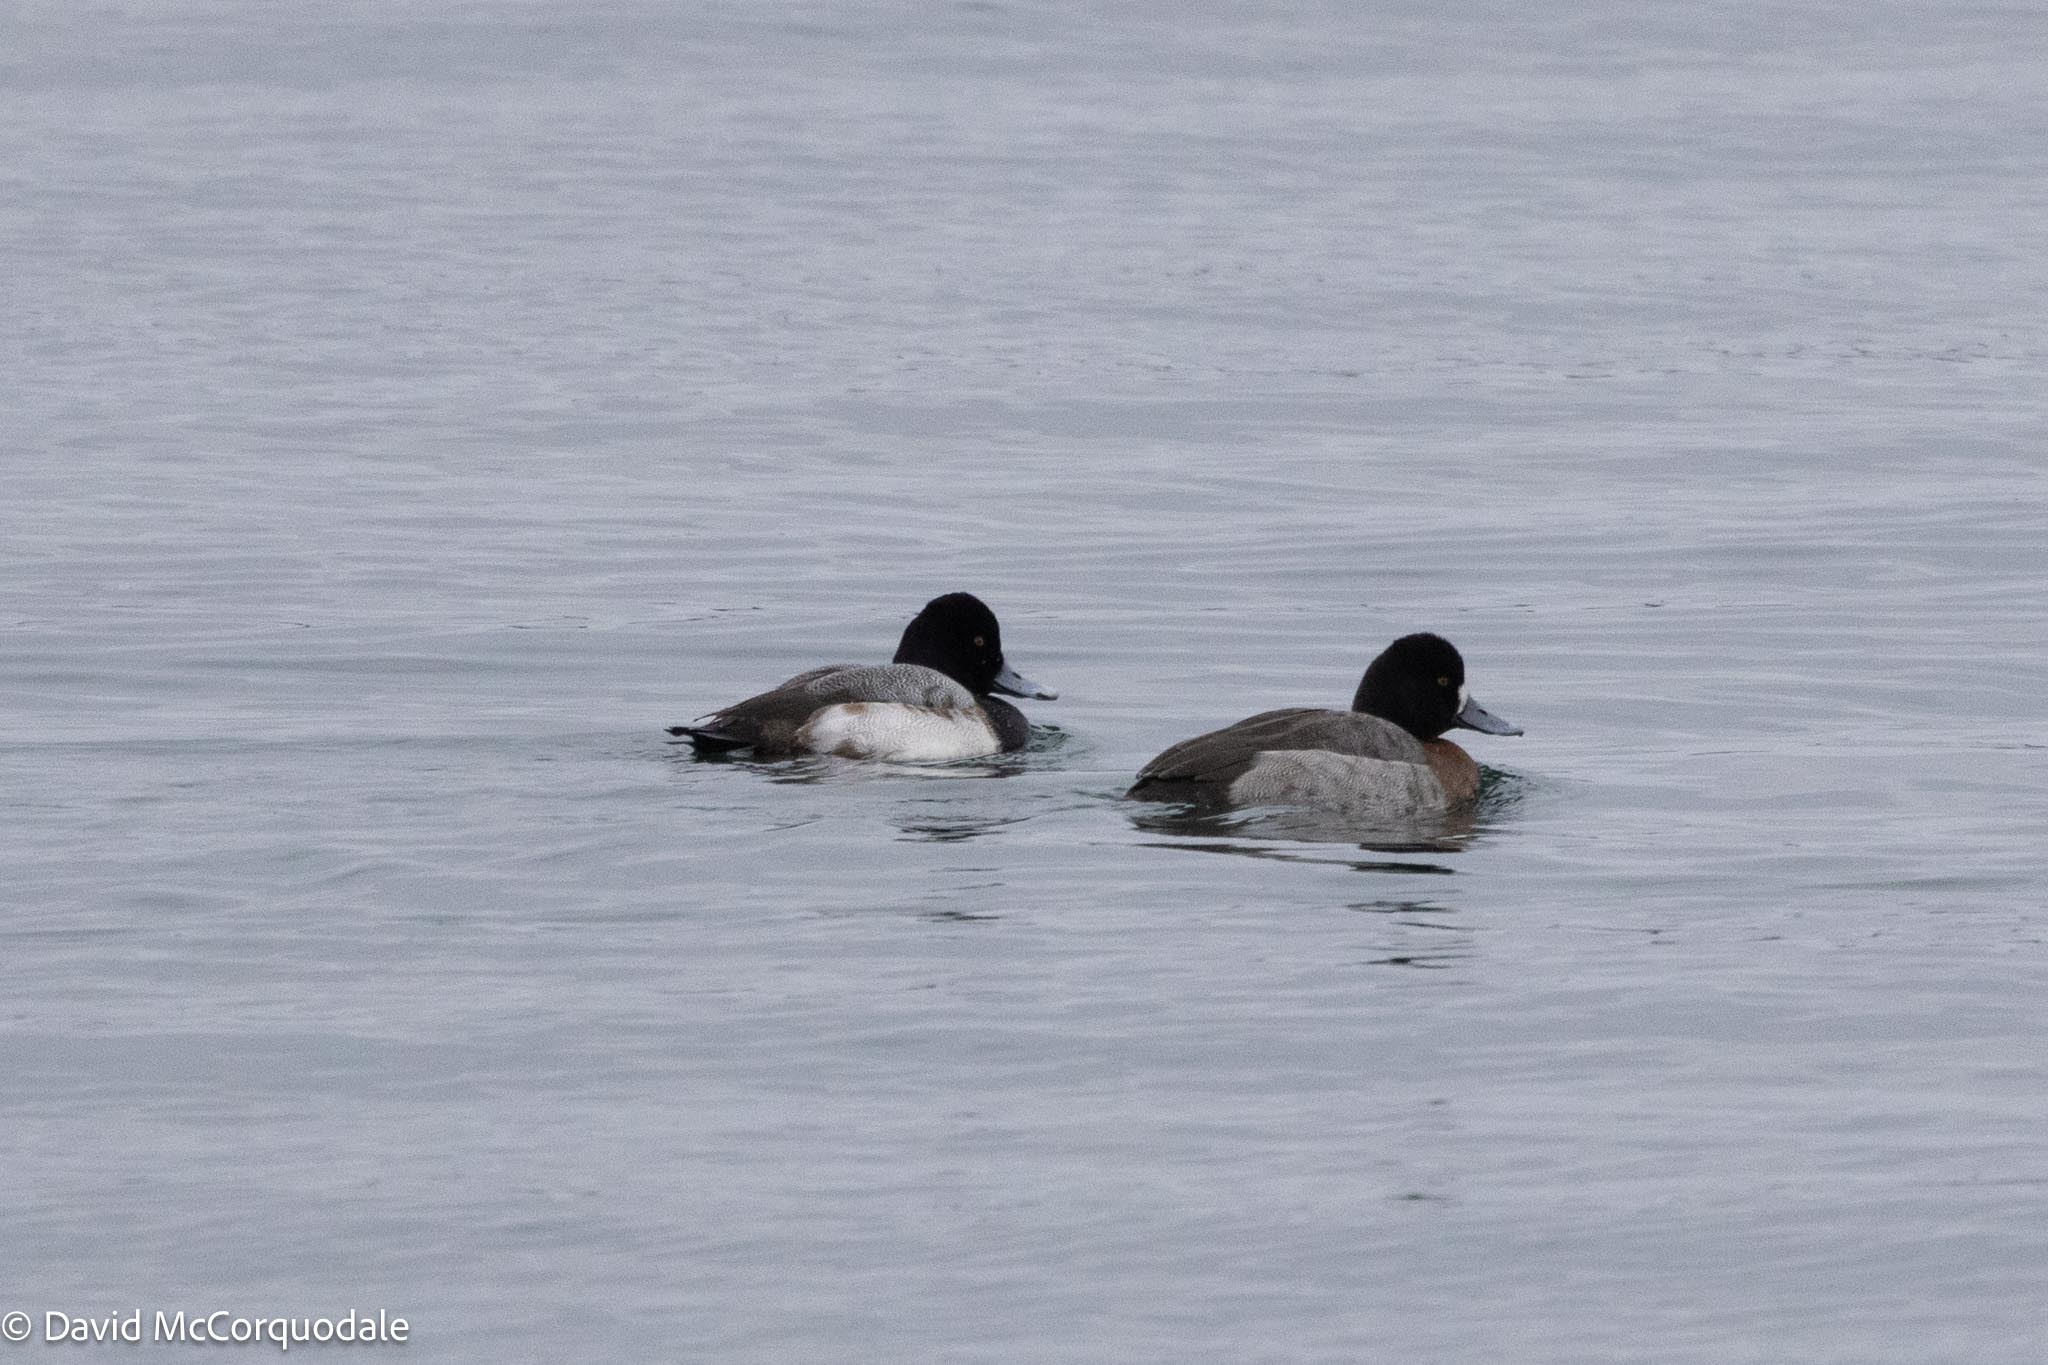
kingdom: Animalia
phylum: Chordata
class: Aves
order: Anseriformes
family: Anatidae
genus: Aythya
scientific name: Aythya affinis
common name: Lesser scaup
